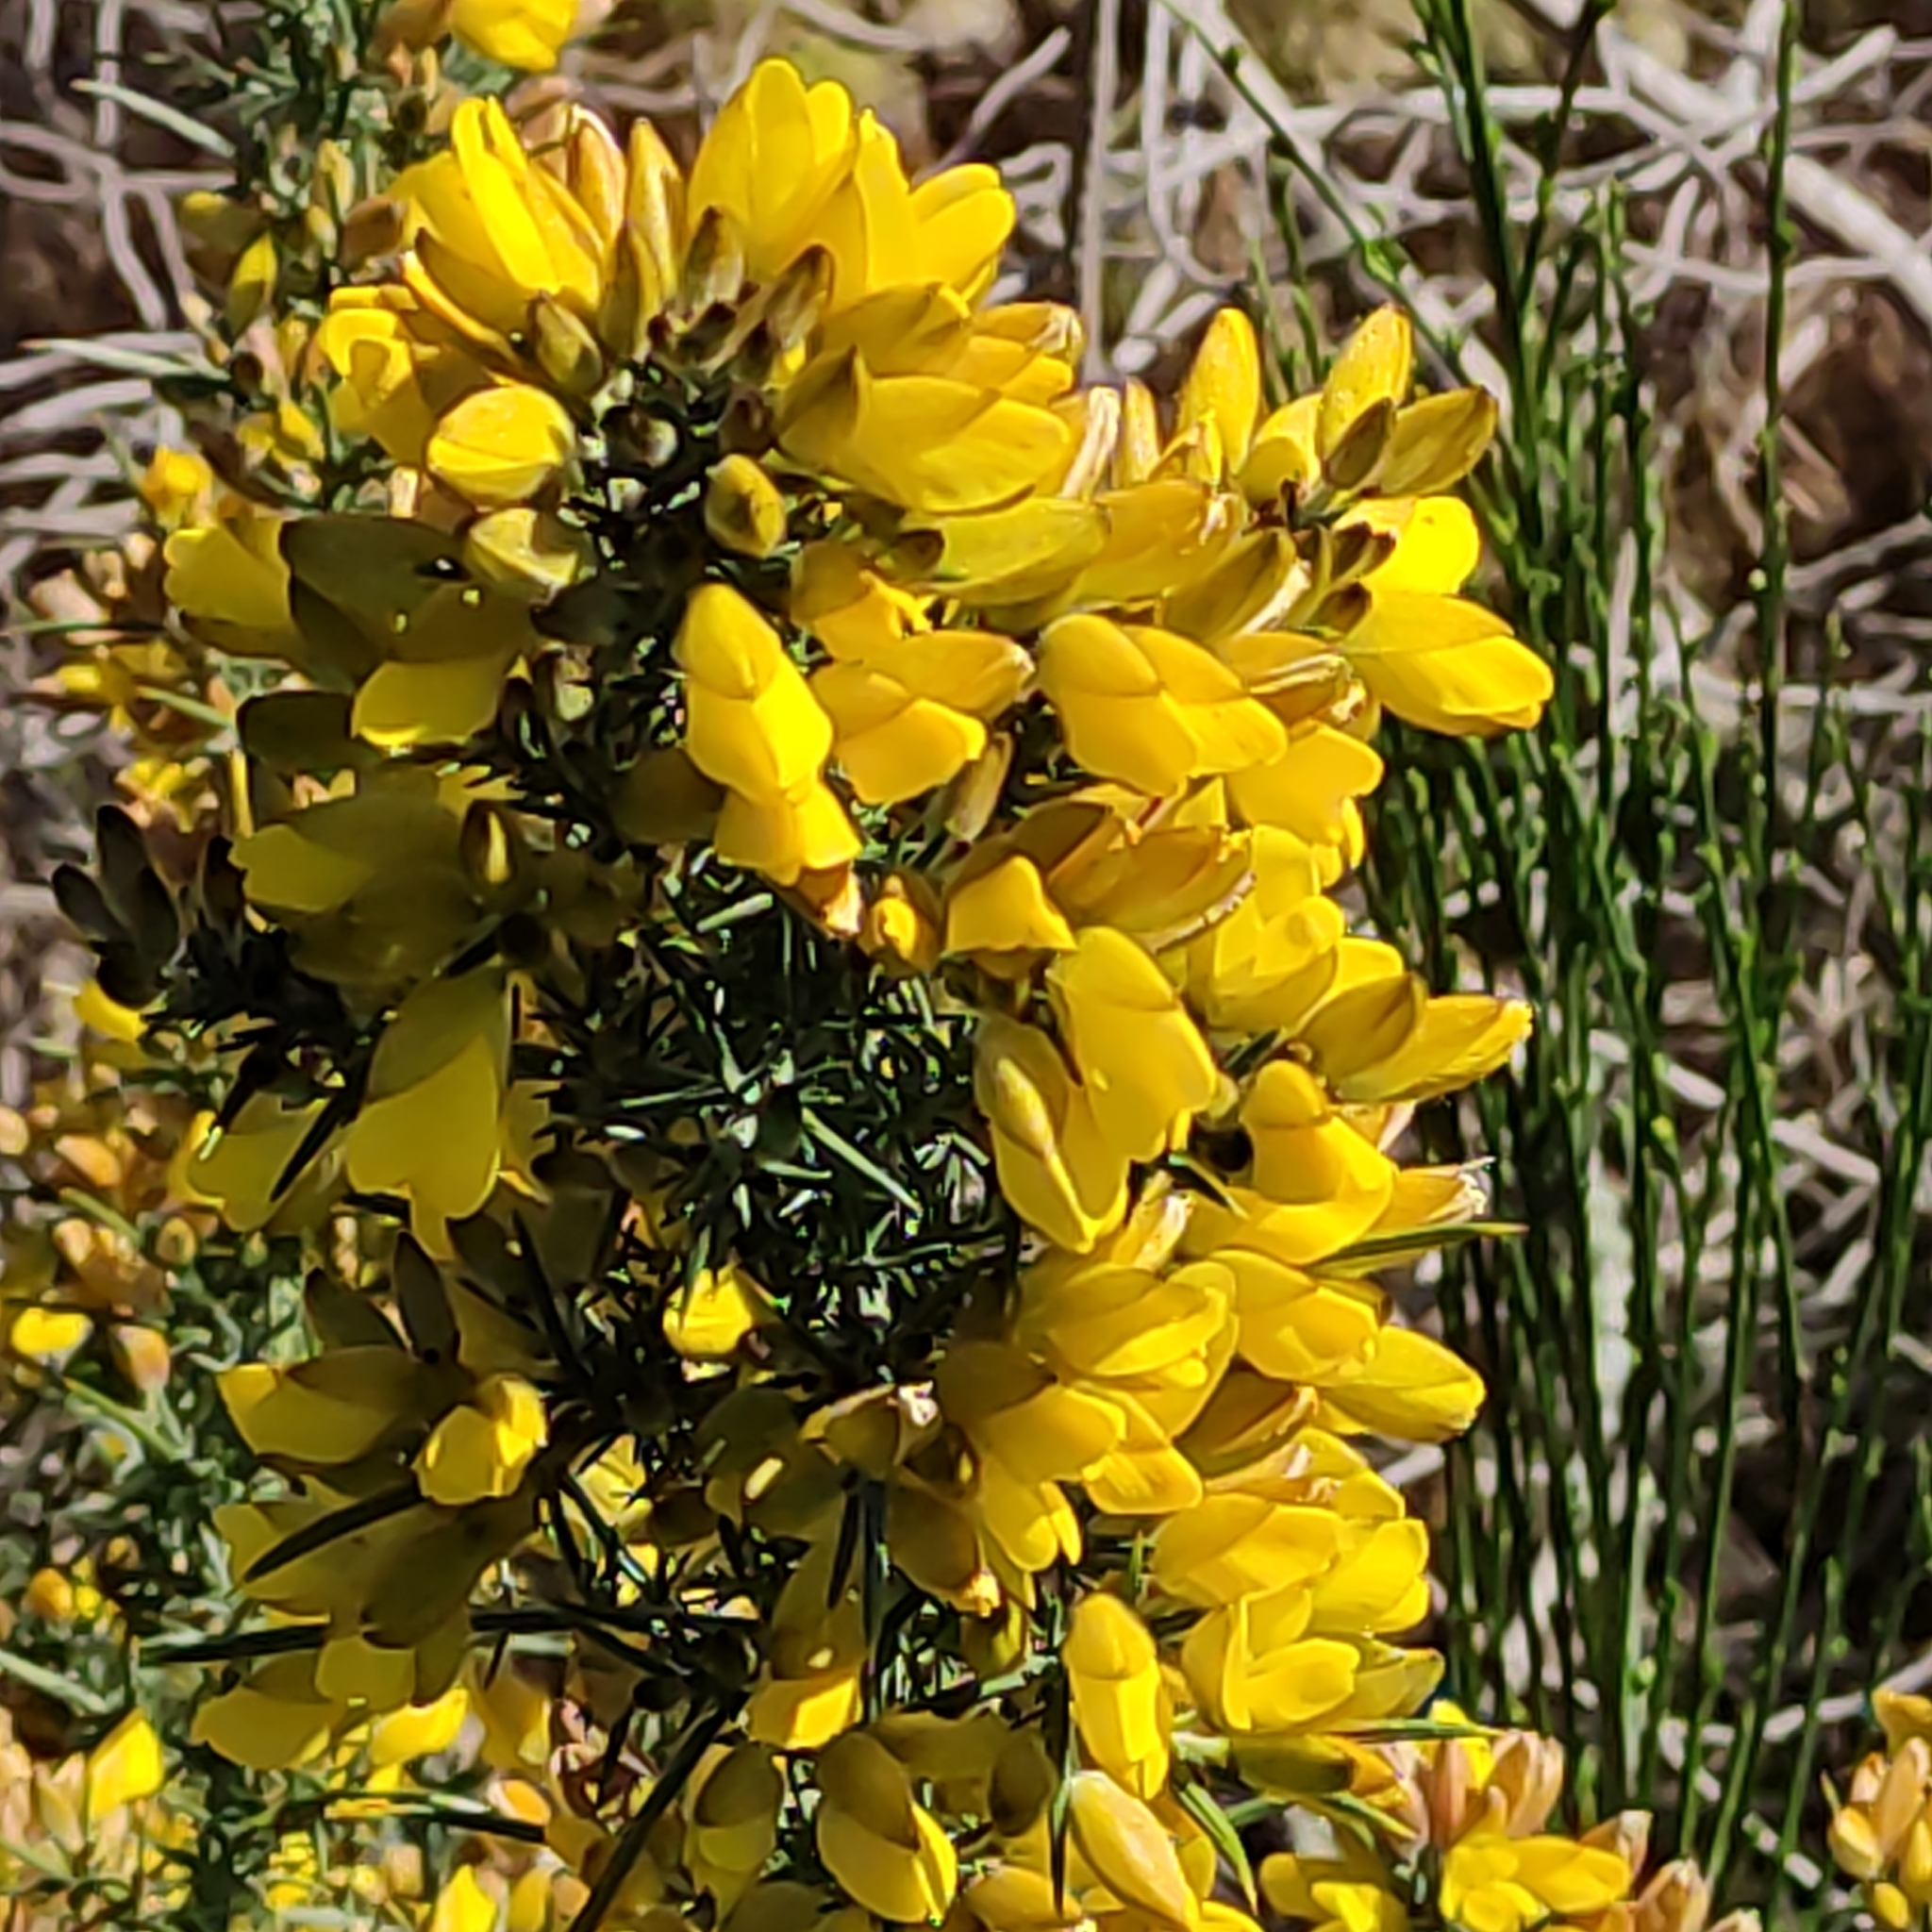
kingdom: Plantae
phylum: Tracheophyta
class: Magnoliopsida
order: Fabales
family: Fabaceae
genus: Ulex
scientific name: Ulex europaeus
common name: Common gorse
